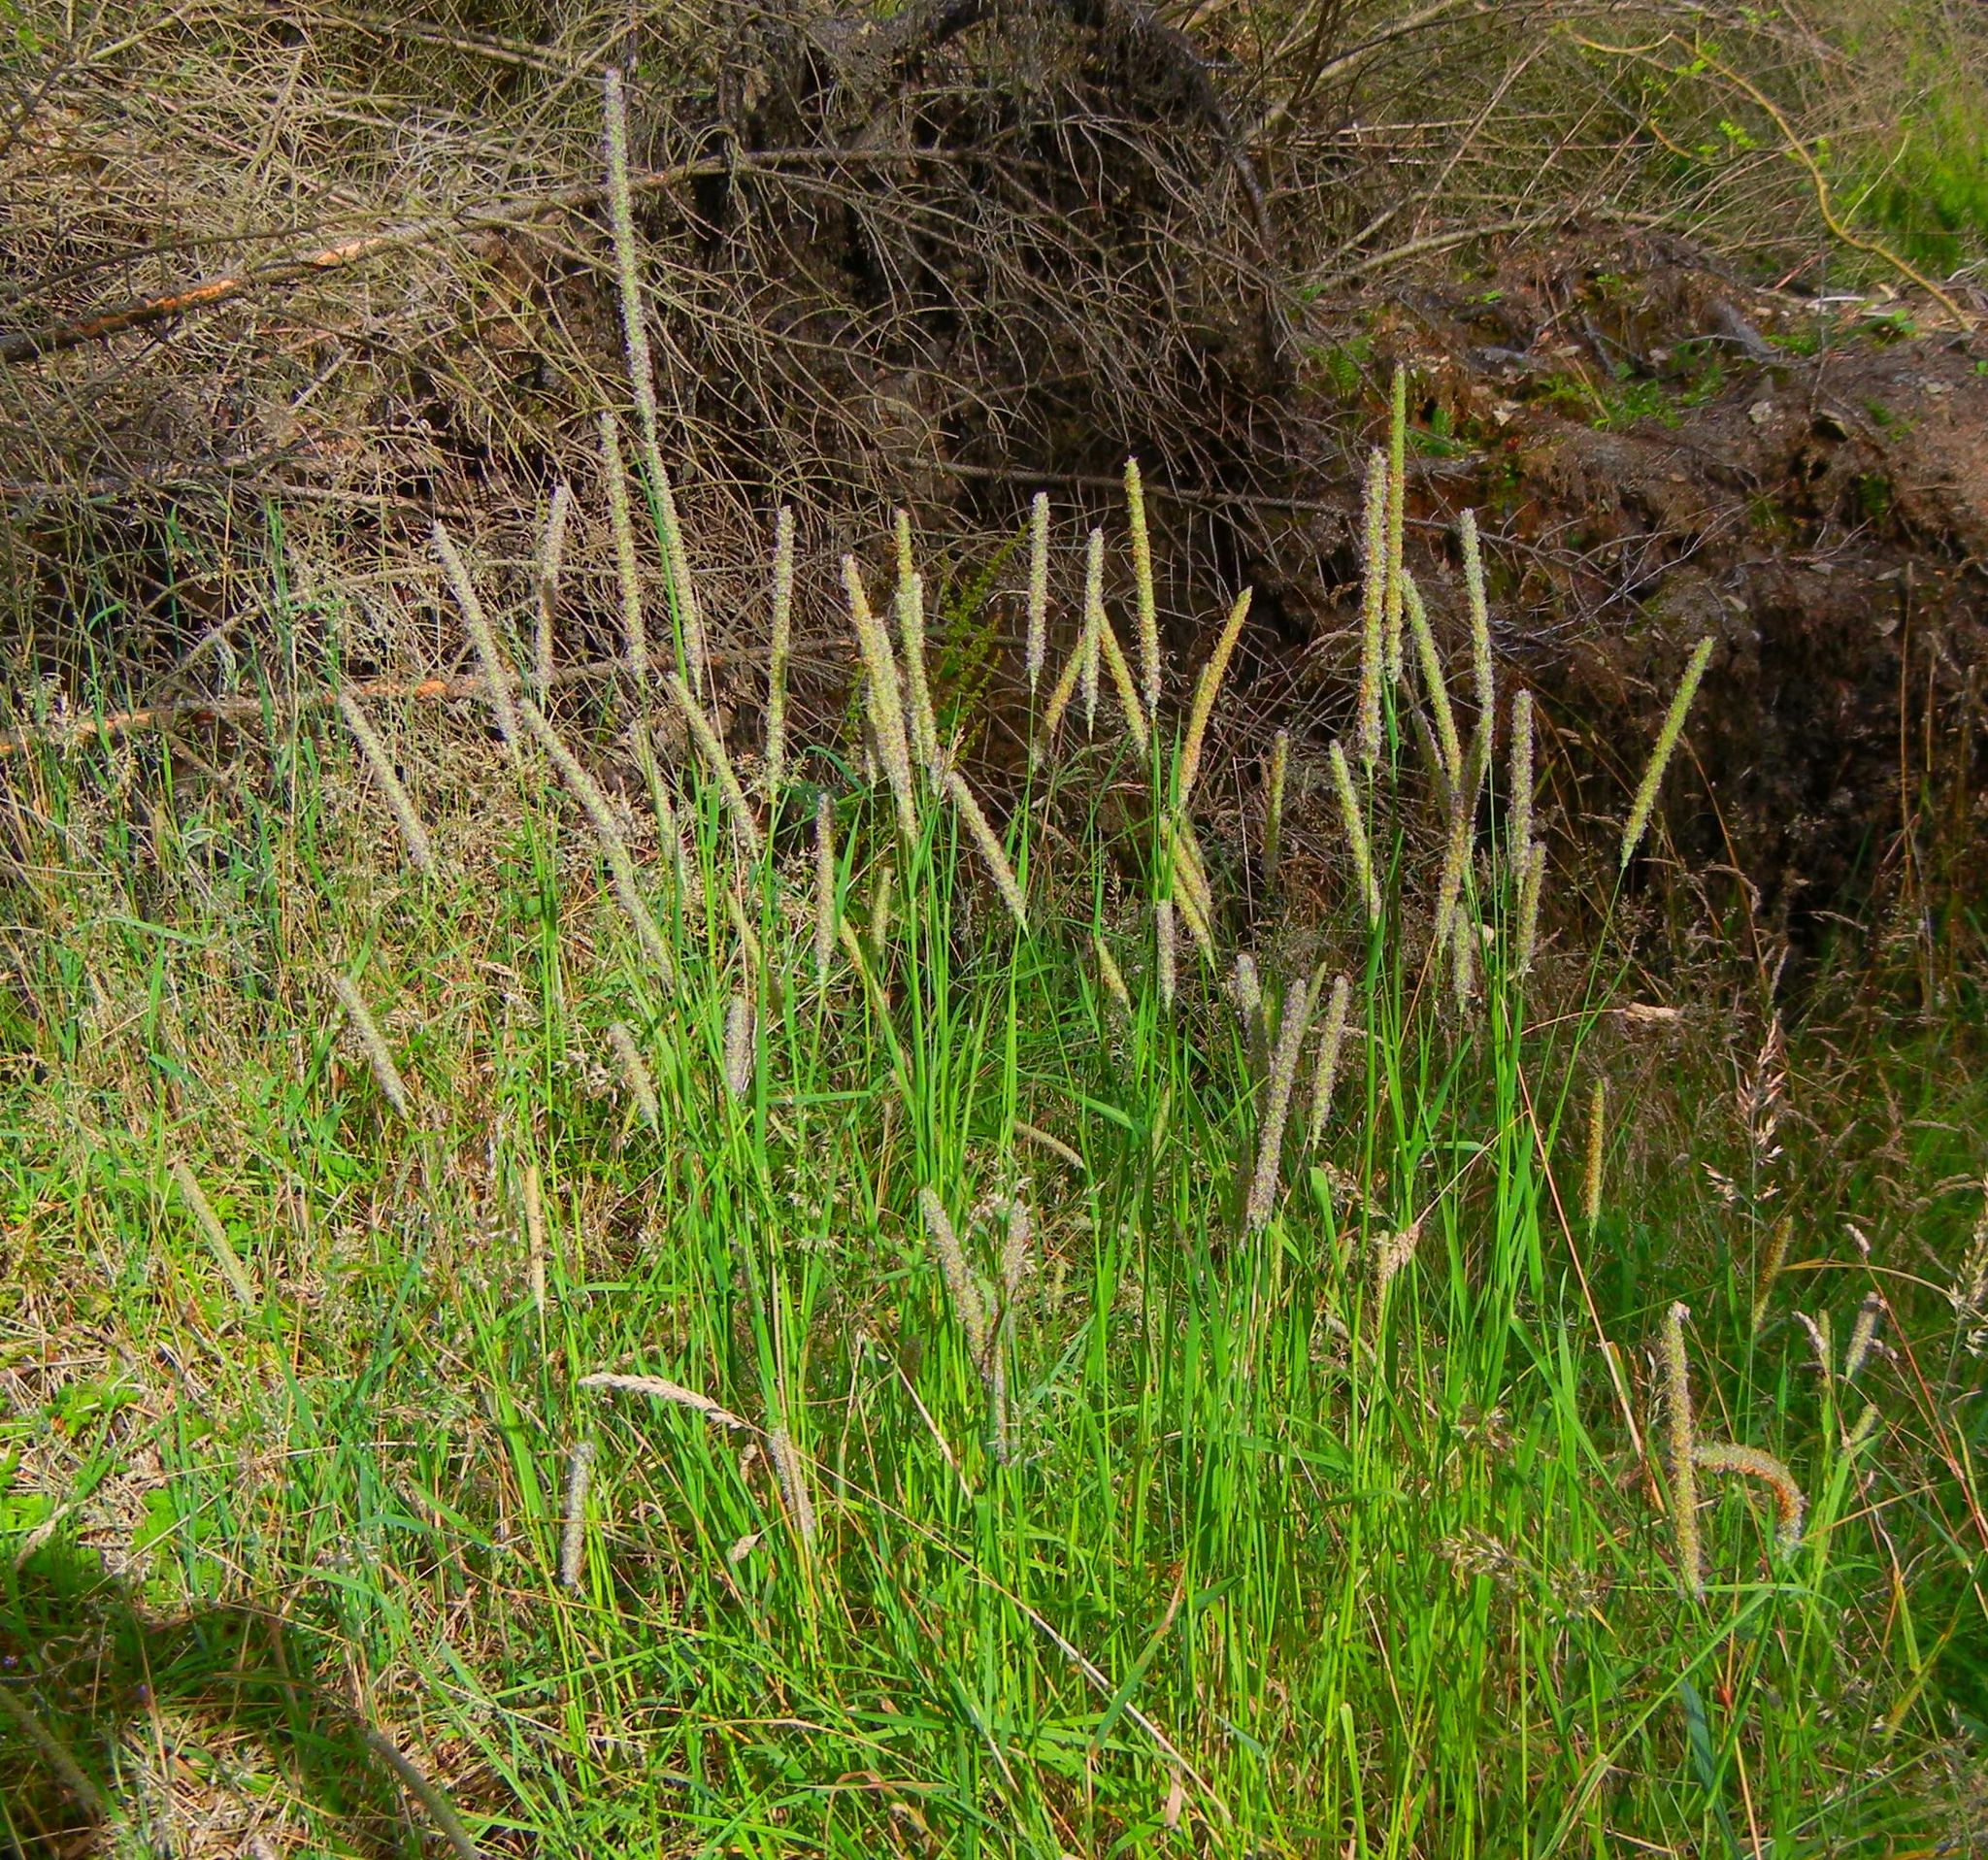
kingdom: Plantae
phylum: Tracheophyta
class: Liliopsida
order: Poales
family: Poaceae
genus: Phleum
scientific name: Phleum pratense
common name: Timothy grass
